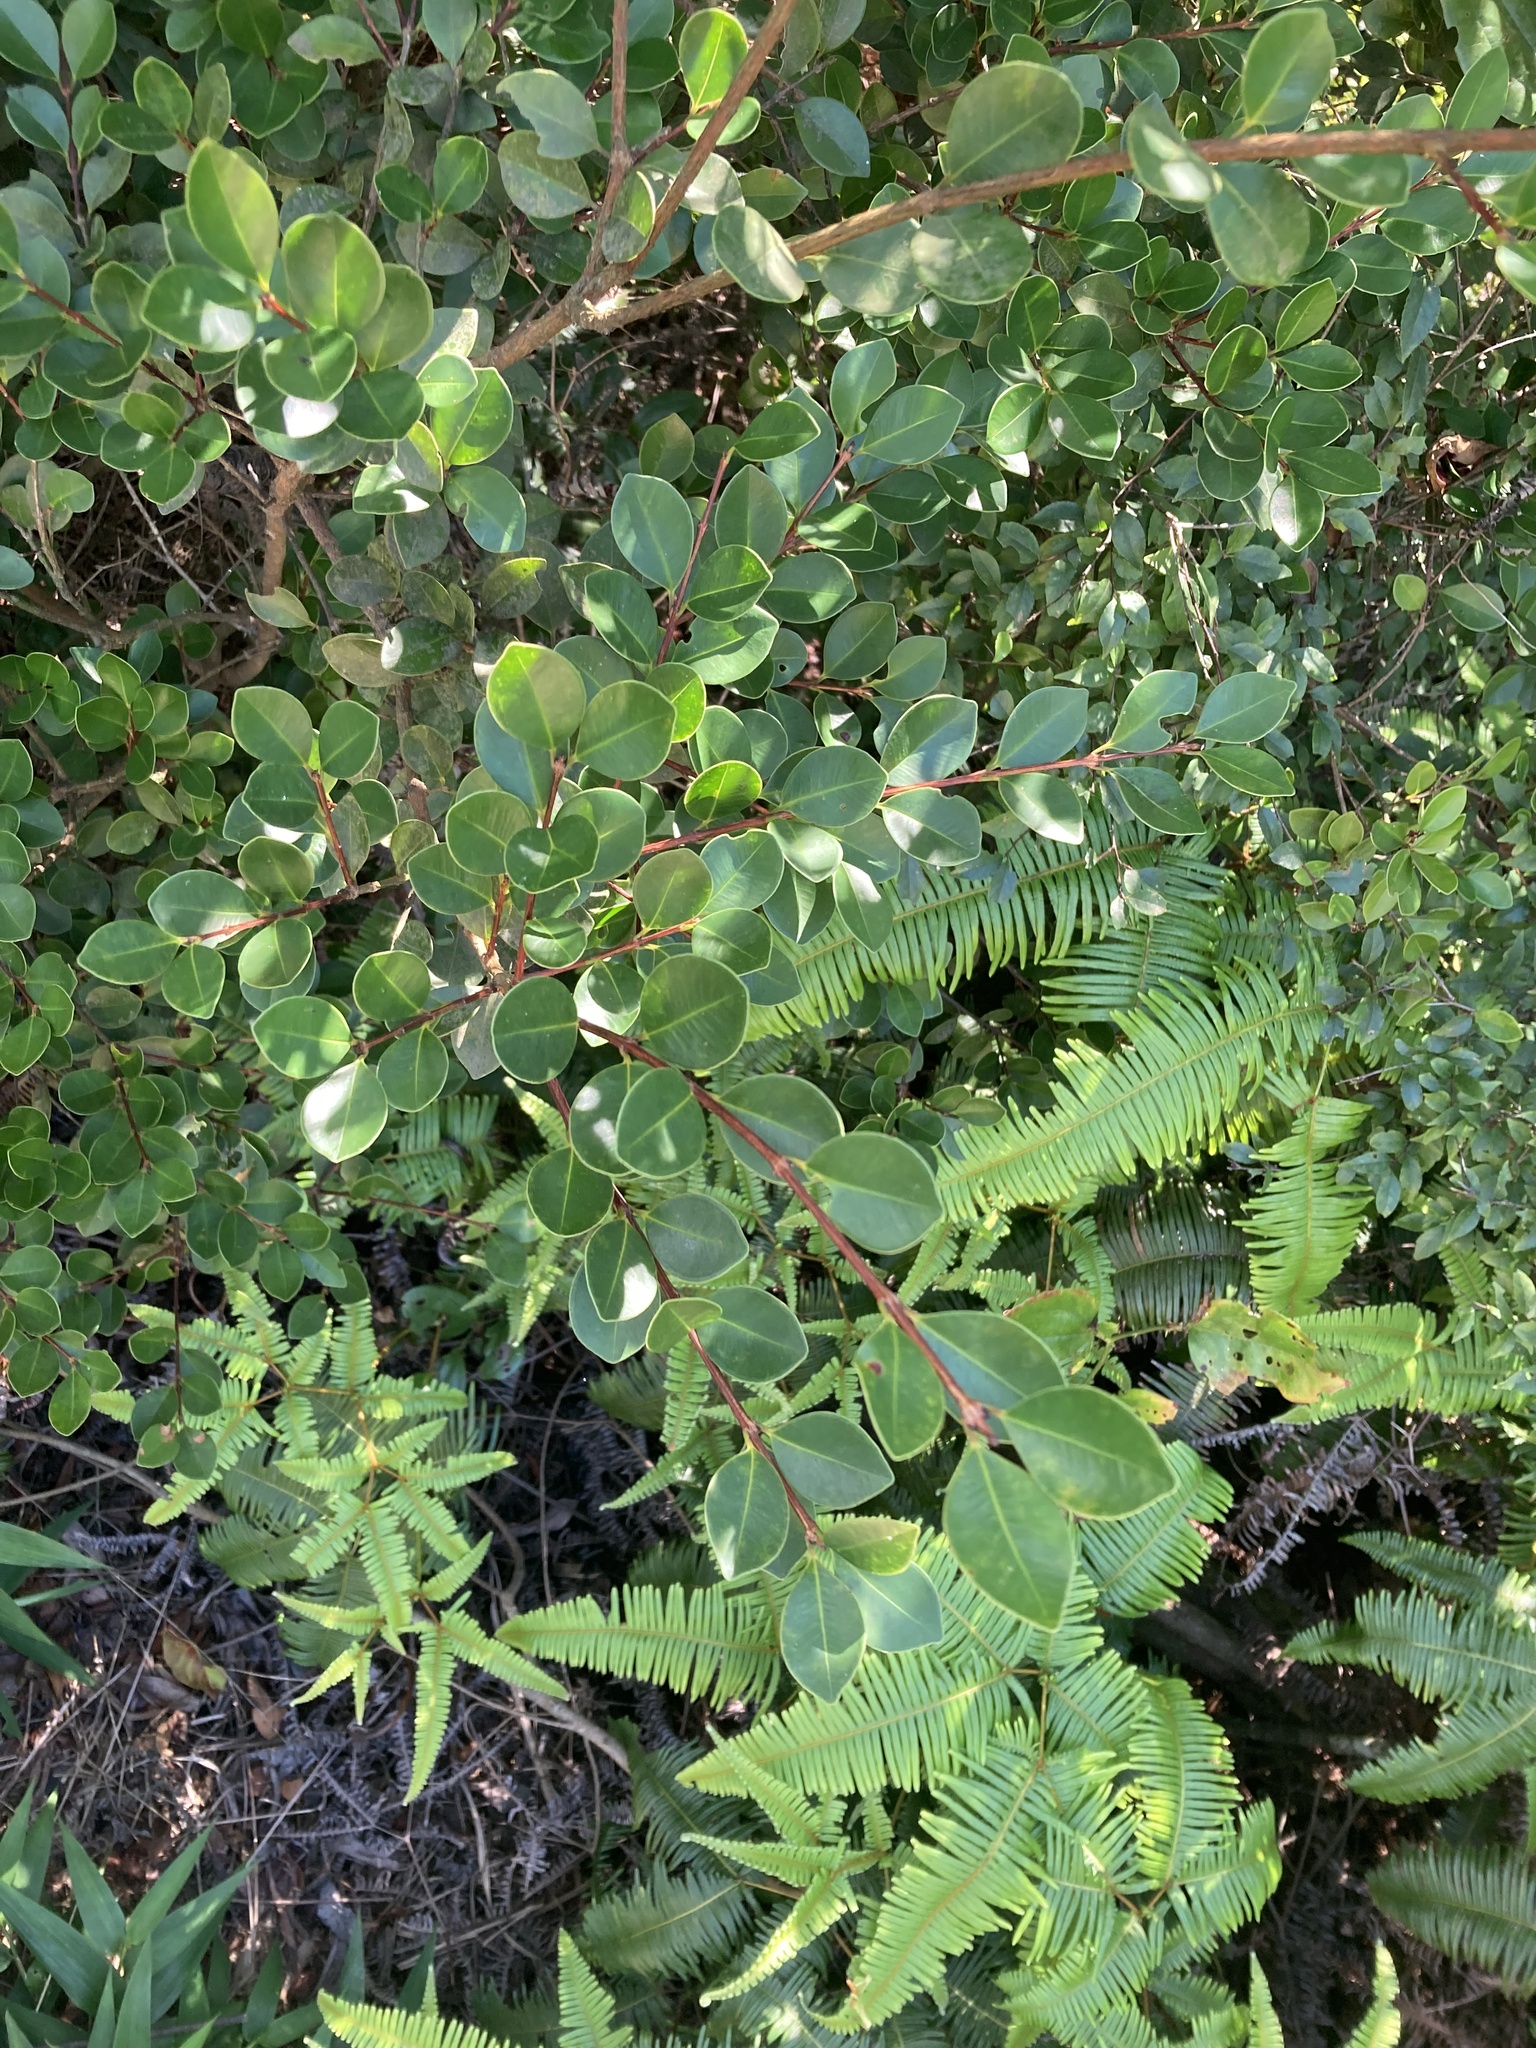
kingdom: Plantae
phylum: Tracheophyta
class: Magnoliopsida
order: Myrtales
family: Myrtaceae
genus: Syzygium
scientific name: Syzygium buxifolium
